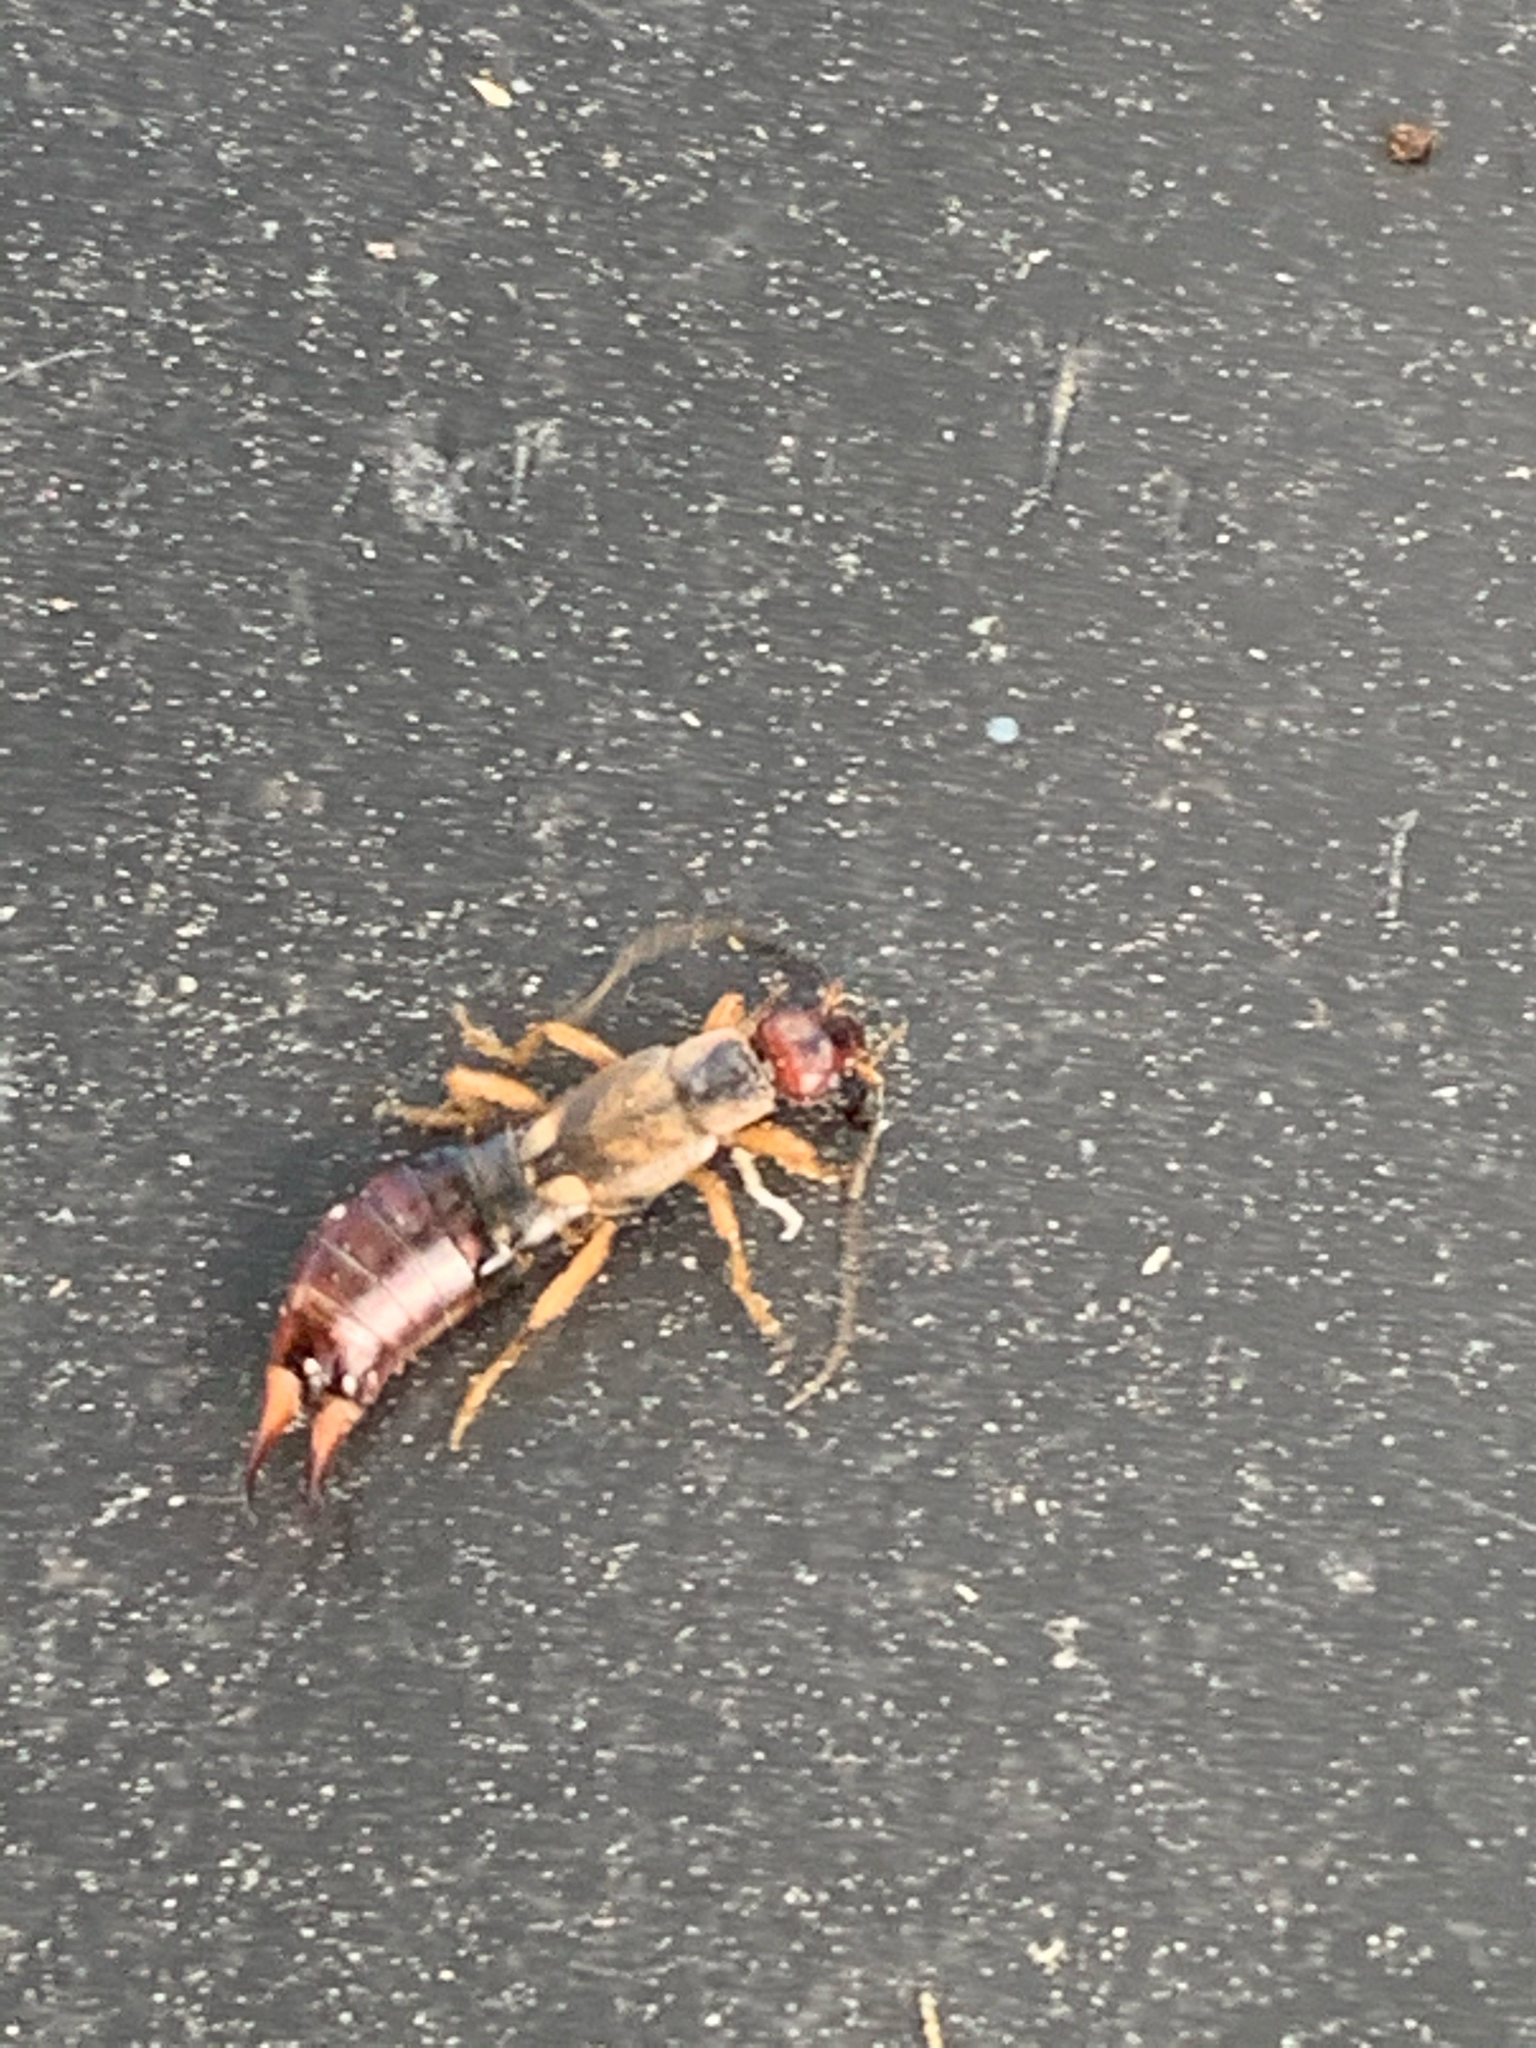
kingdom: Animalia
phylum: Arthropoda
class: Insecta
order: Dermaptera
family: Forficulidae
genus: Forficula
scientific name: Forficula
